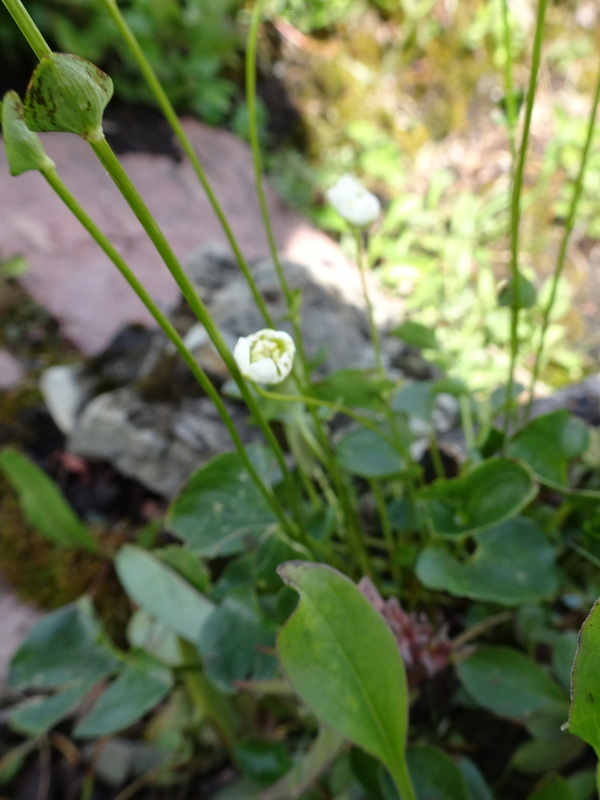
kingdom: Plantae
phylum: Tracheophyta
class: Magnoliopsida
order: Celastrales
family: Parnassiaceae
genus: Parnassia
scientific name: Parnassia fimbriata
